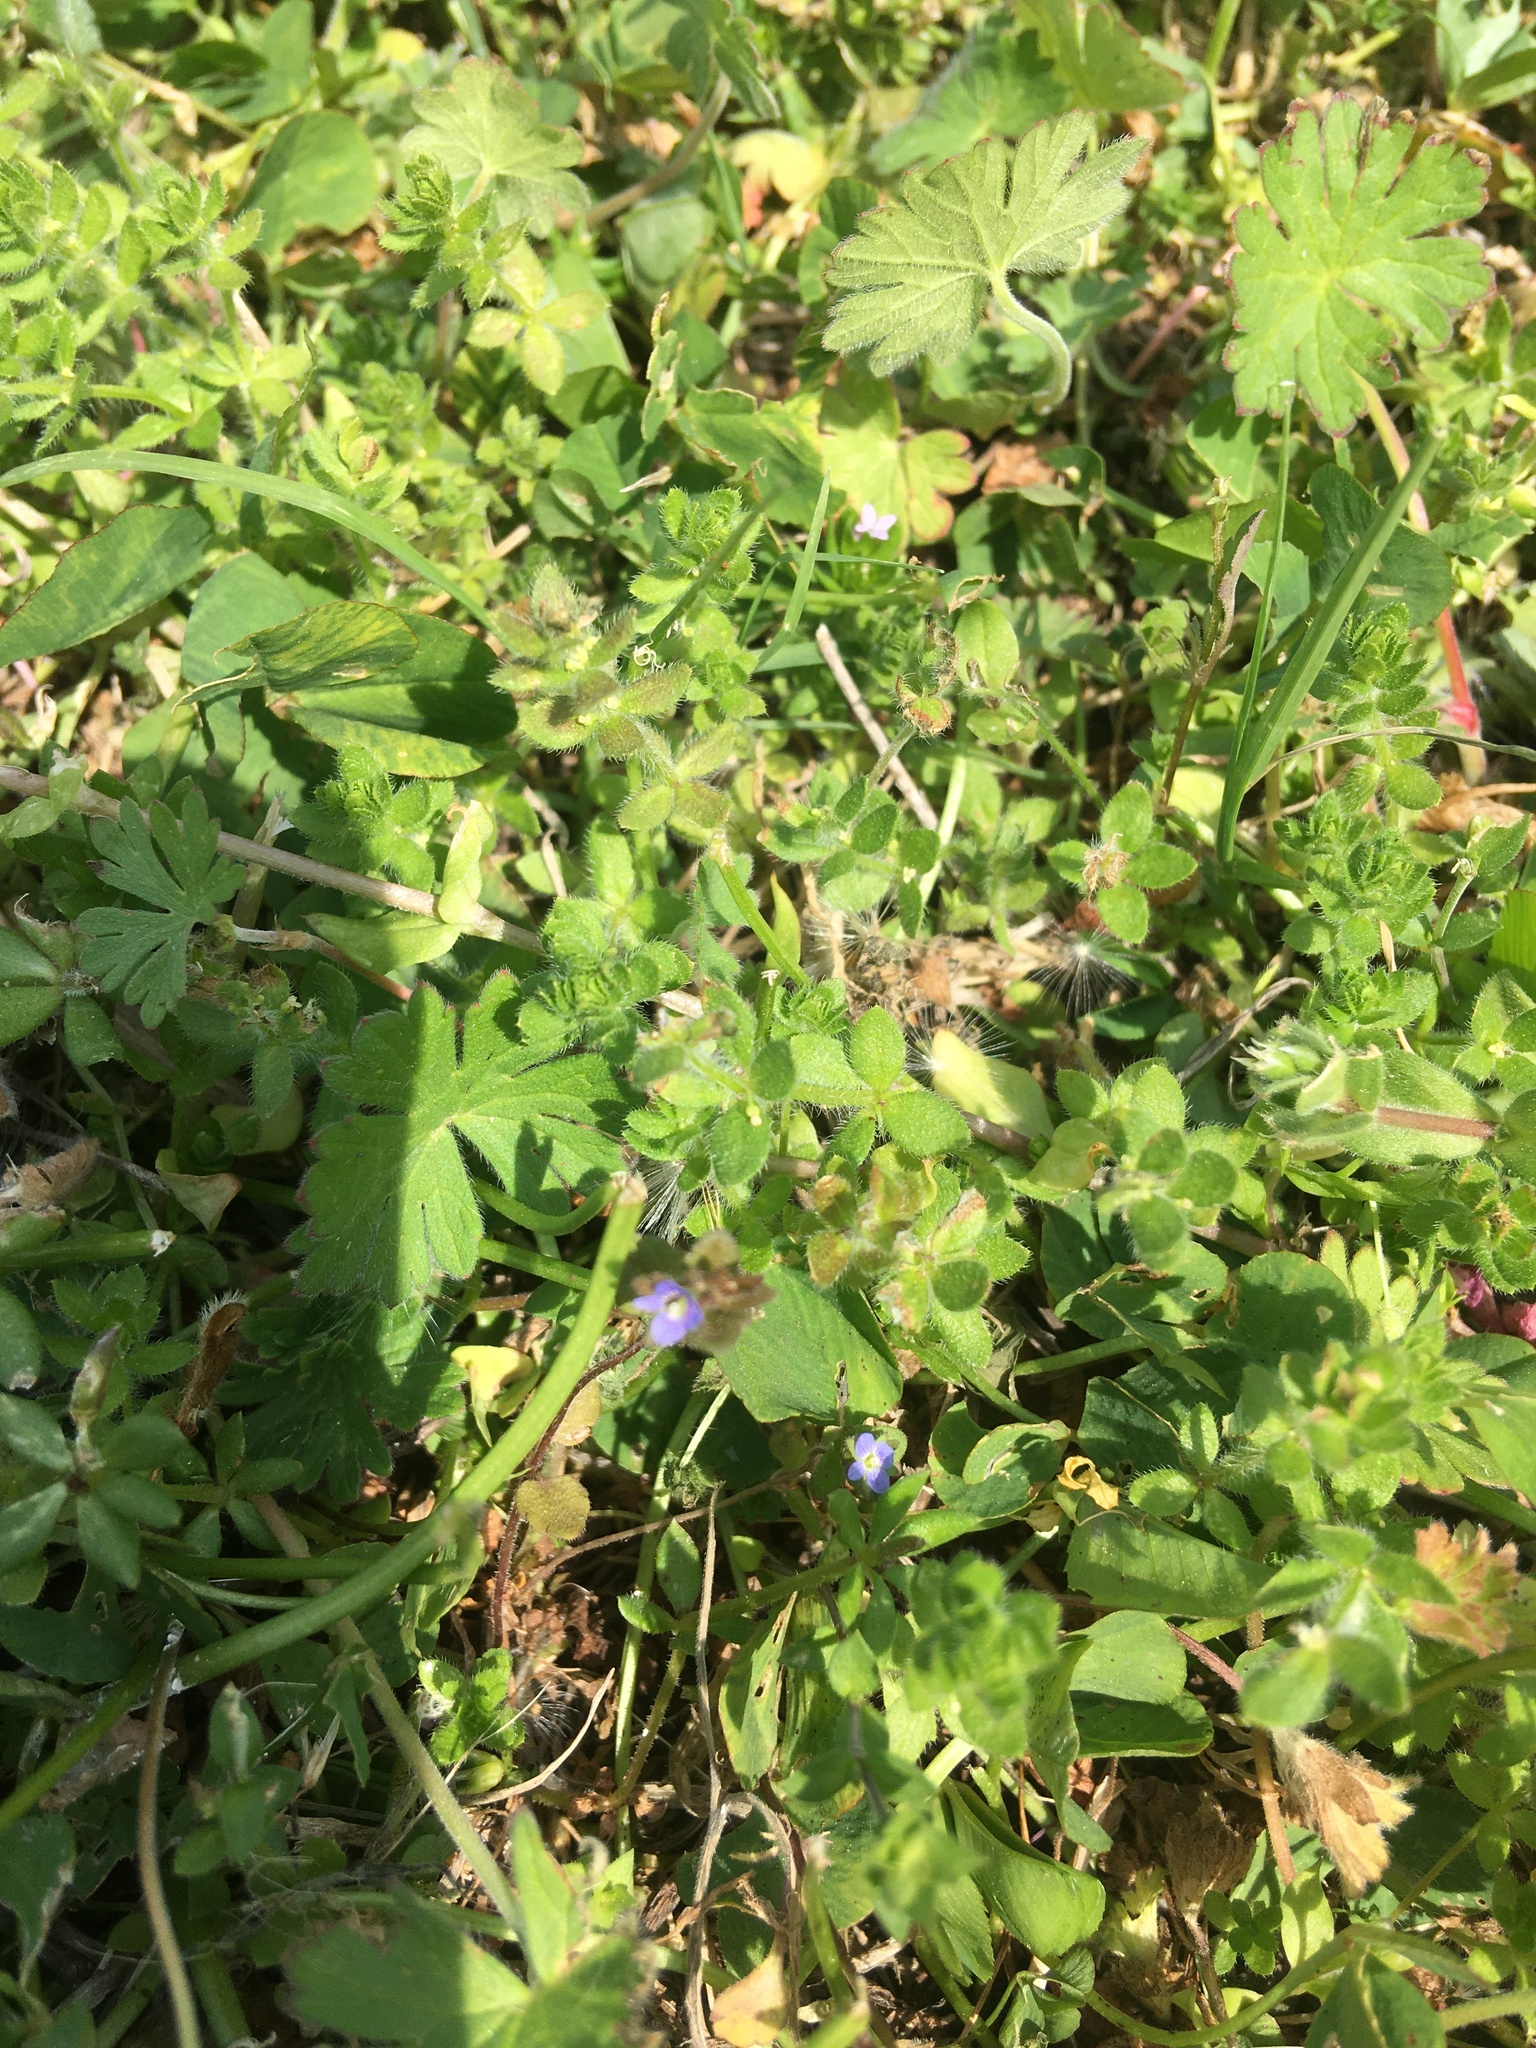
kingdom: Plantae
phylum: Tracheophyta
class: Magnoliopsida
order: Gentianales
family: Rubiaceae
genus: Sherardia
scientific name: Sherardia arvensis
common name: Field madder
